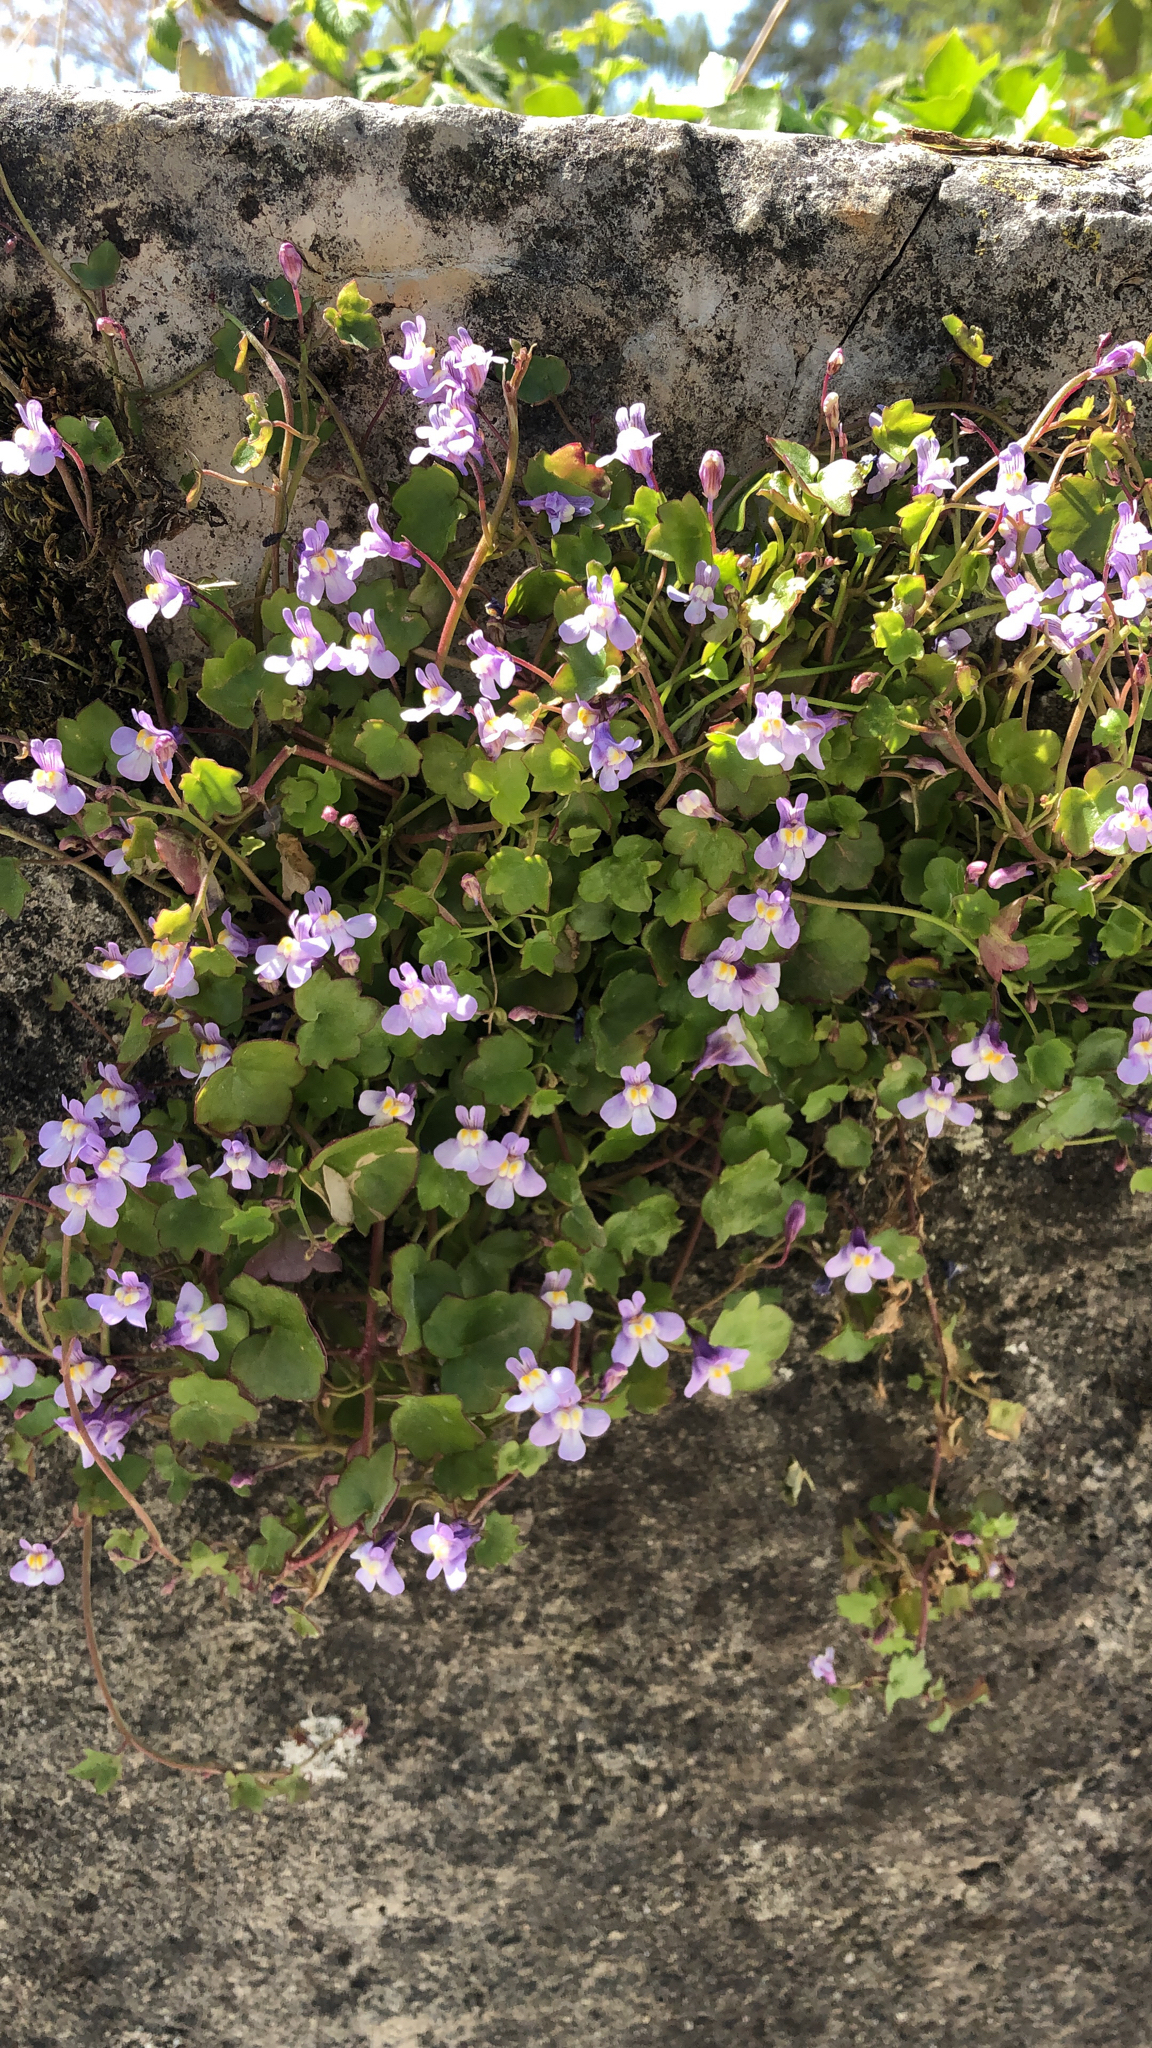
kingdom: Plantae
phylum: Tracheophyta
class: Magnoliopsida
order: Lamiales
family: Plantaginaceae
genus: Cymbalaria
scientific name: Cymbalaria muralis
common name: Ivy-leaved toadflax
